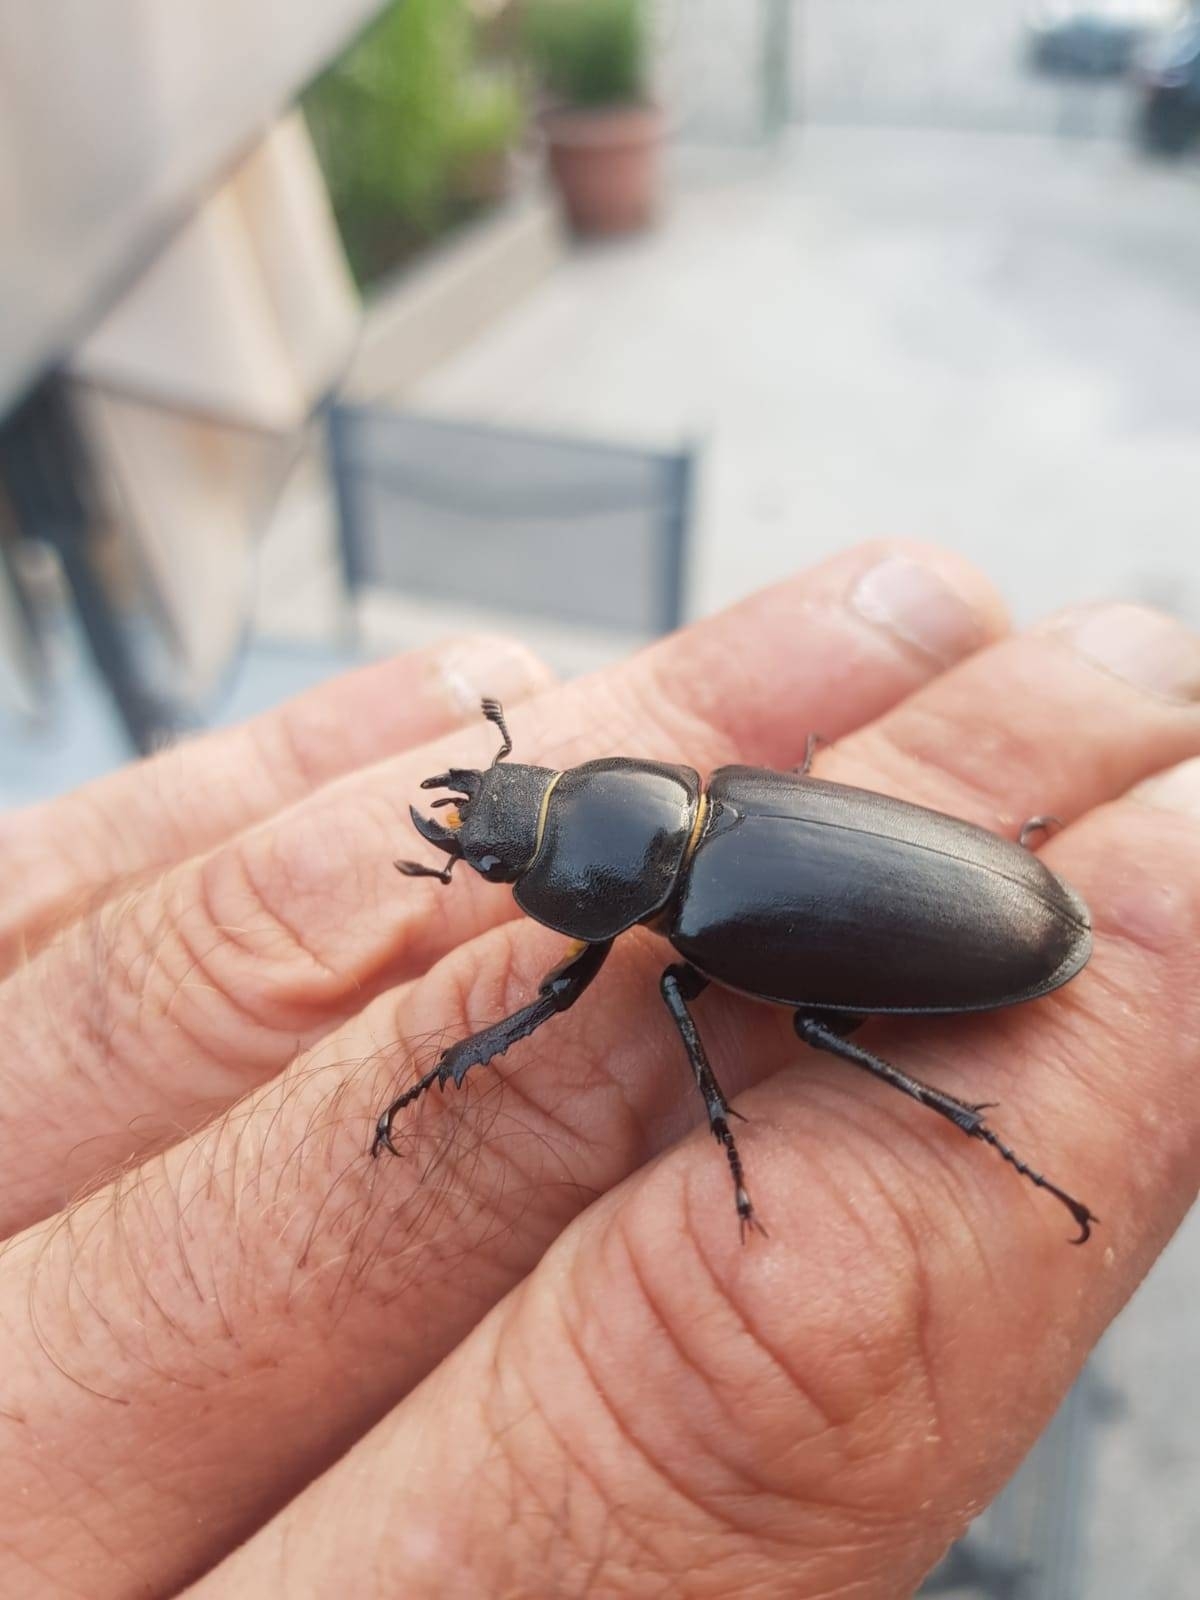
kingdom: Animalia
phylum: Arthropoda
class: Insecta
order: Coleoptera
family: Lucanidae
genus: Lucanus
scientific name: Lucanus cervus
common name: Stag beetle
